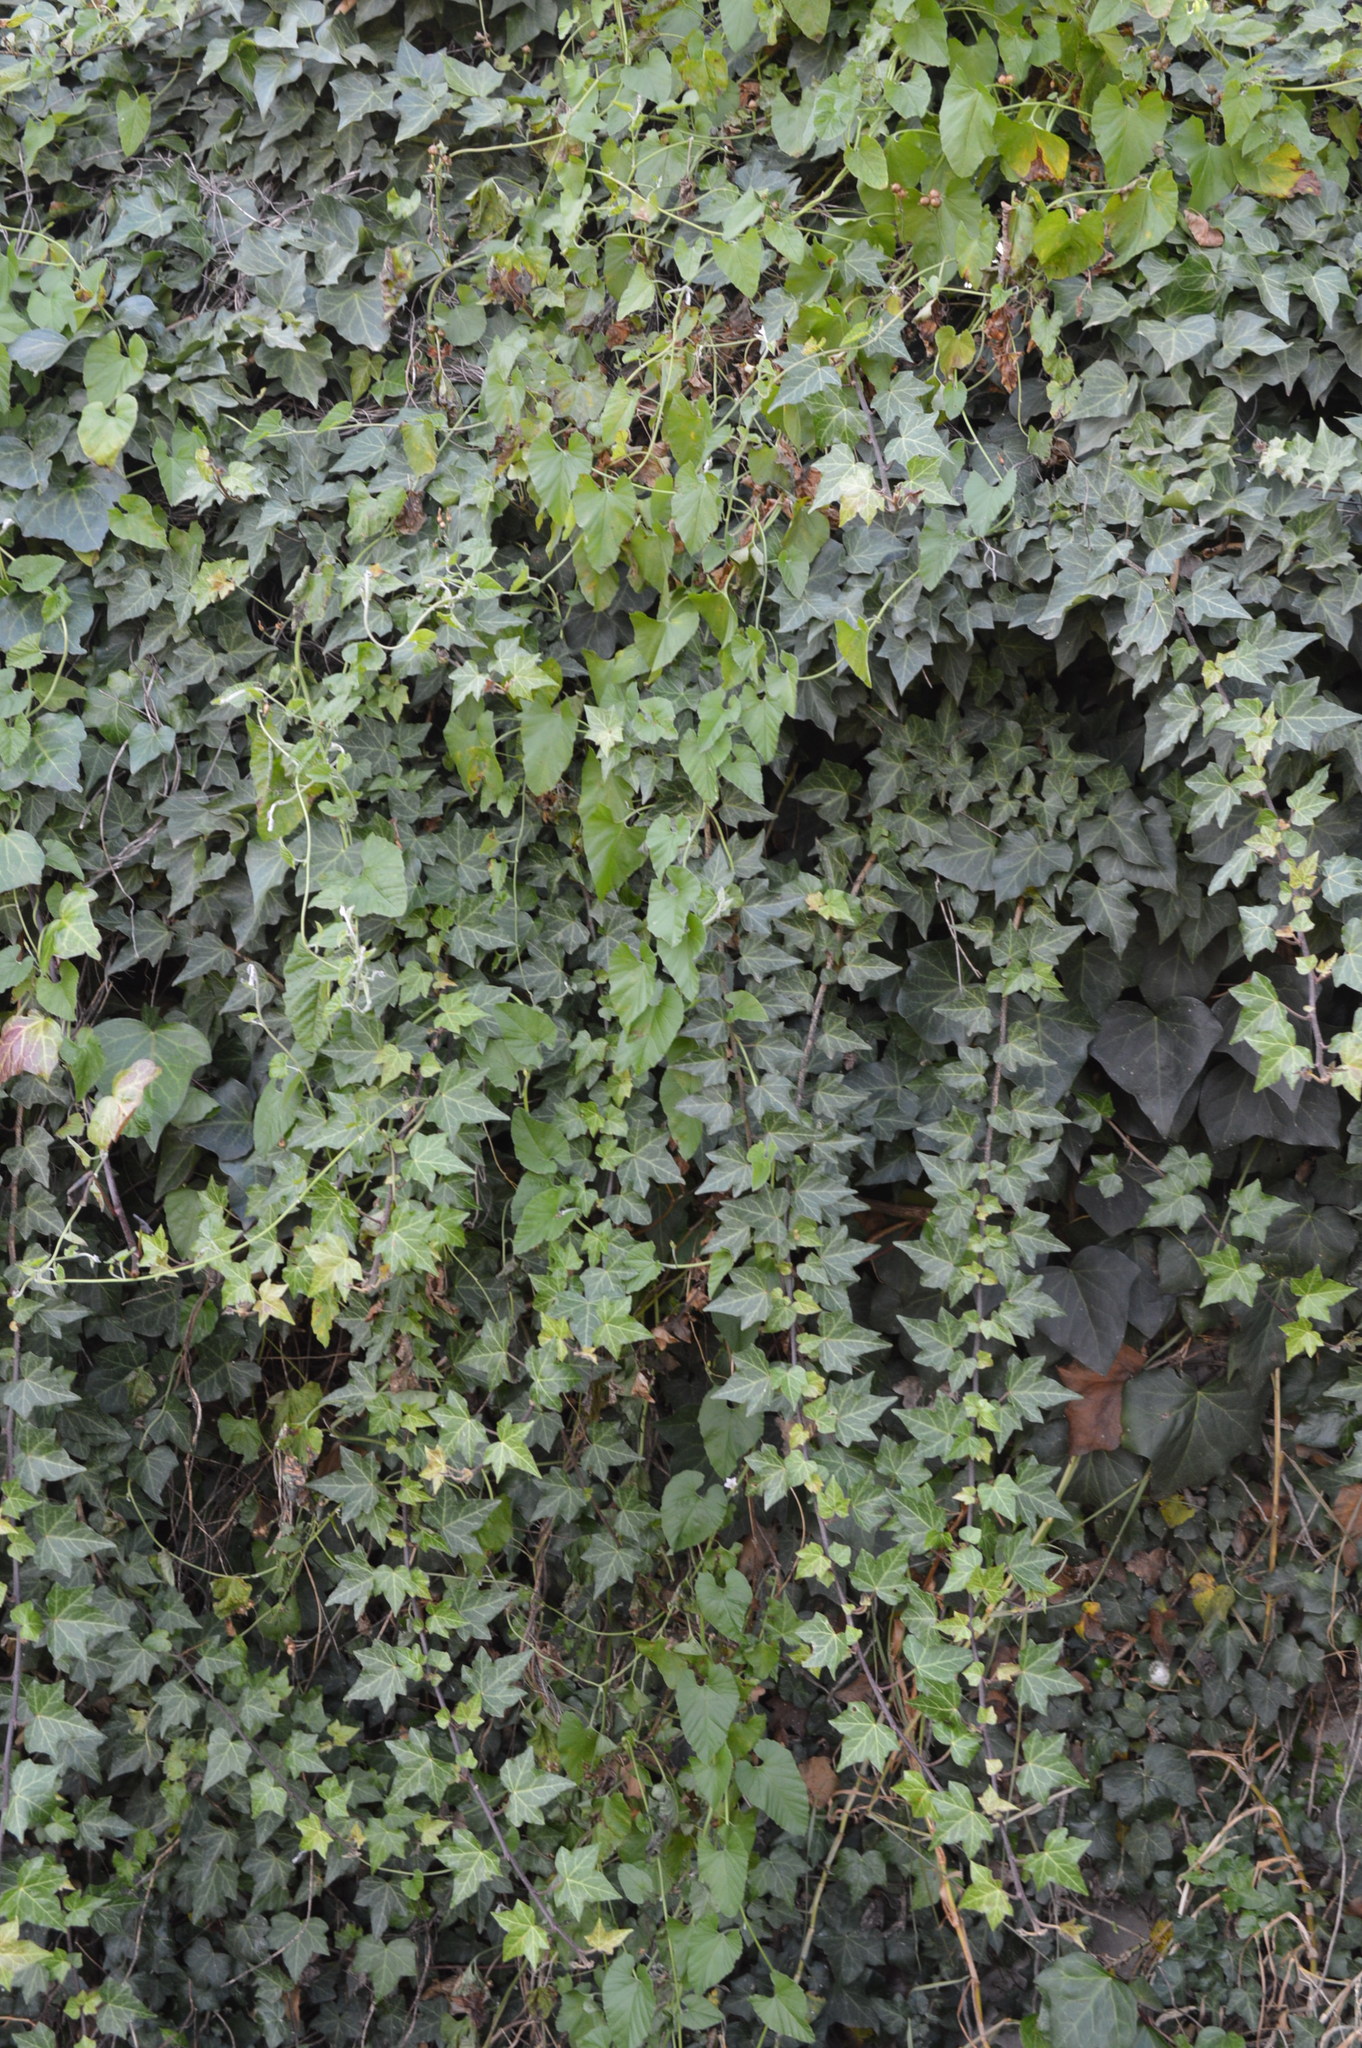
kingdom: Plantae
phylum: Tracheophyta
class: Magnoliopsida
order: Apiales
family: Araliaceae
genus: Hedera
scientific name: Hedera helix
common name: Ivy
